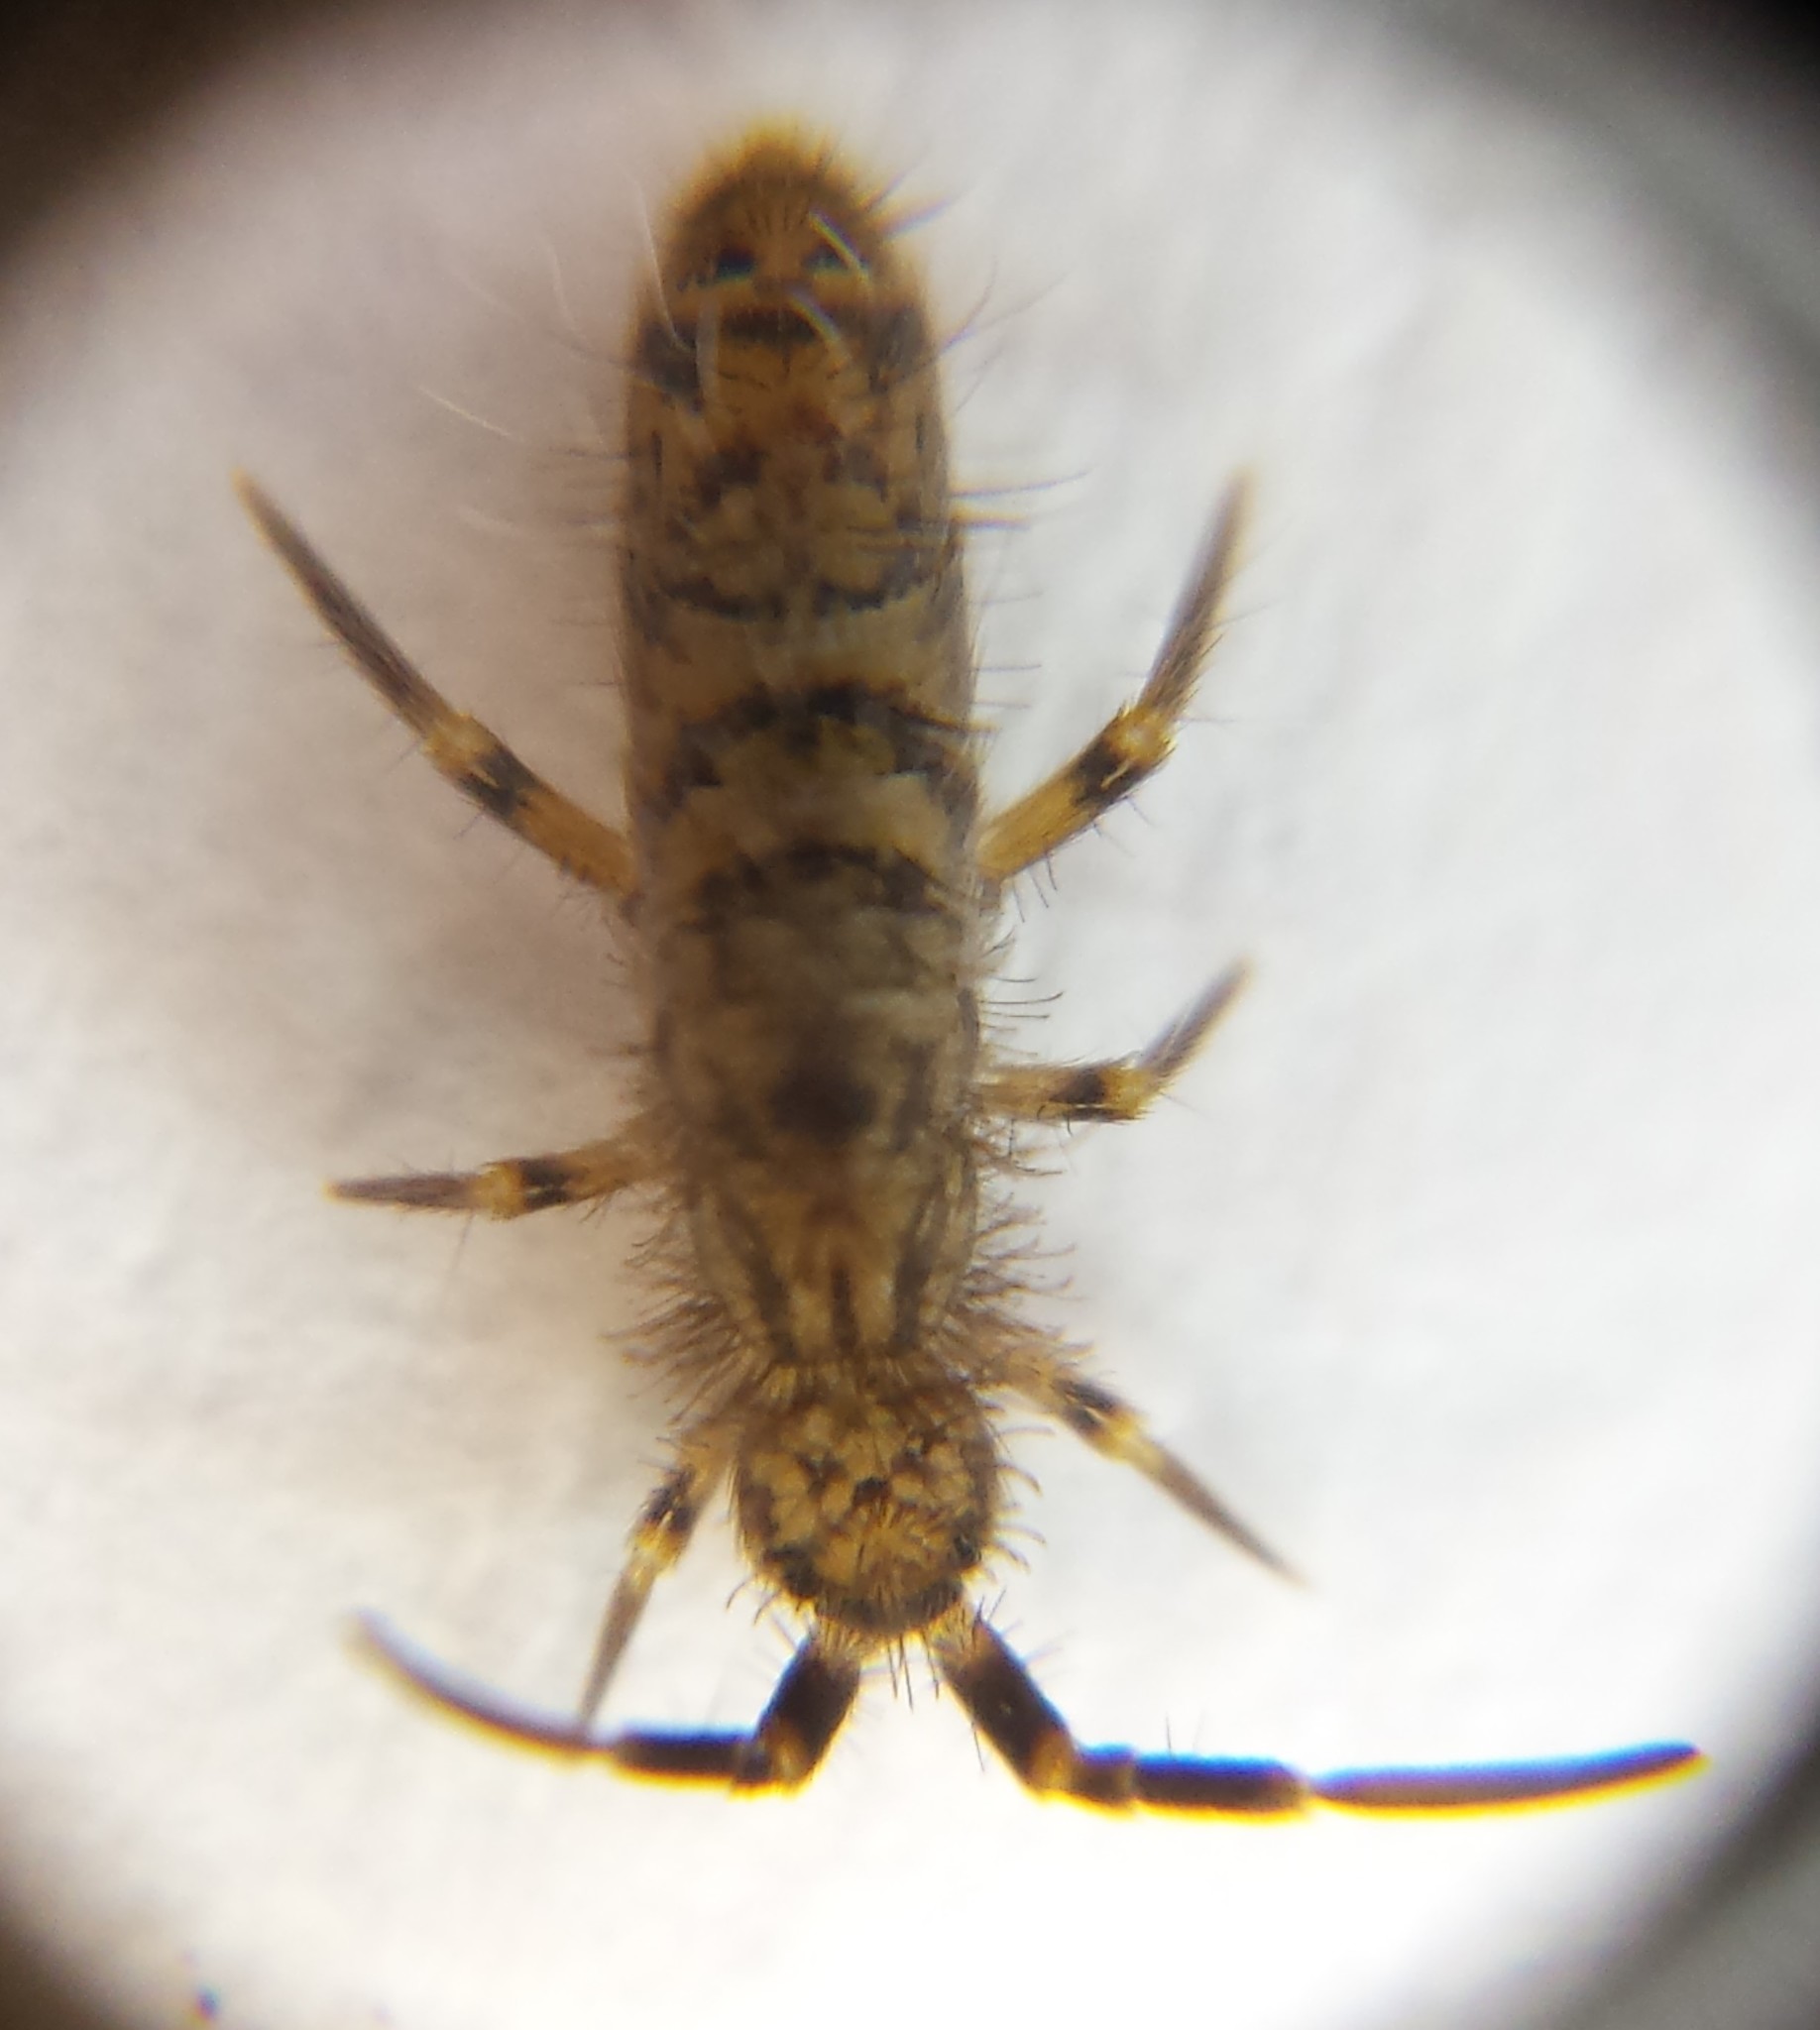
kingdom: Animalia
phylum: Arthropoda
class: Collembola
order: Entomobryomorpha
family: Orchesellidae
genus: Orchesella
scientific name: Orchesella villosa
